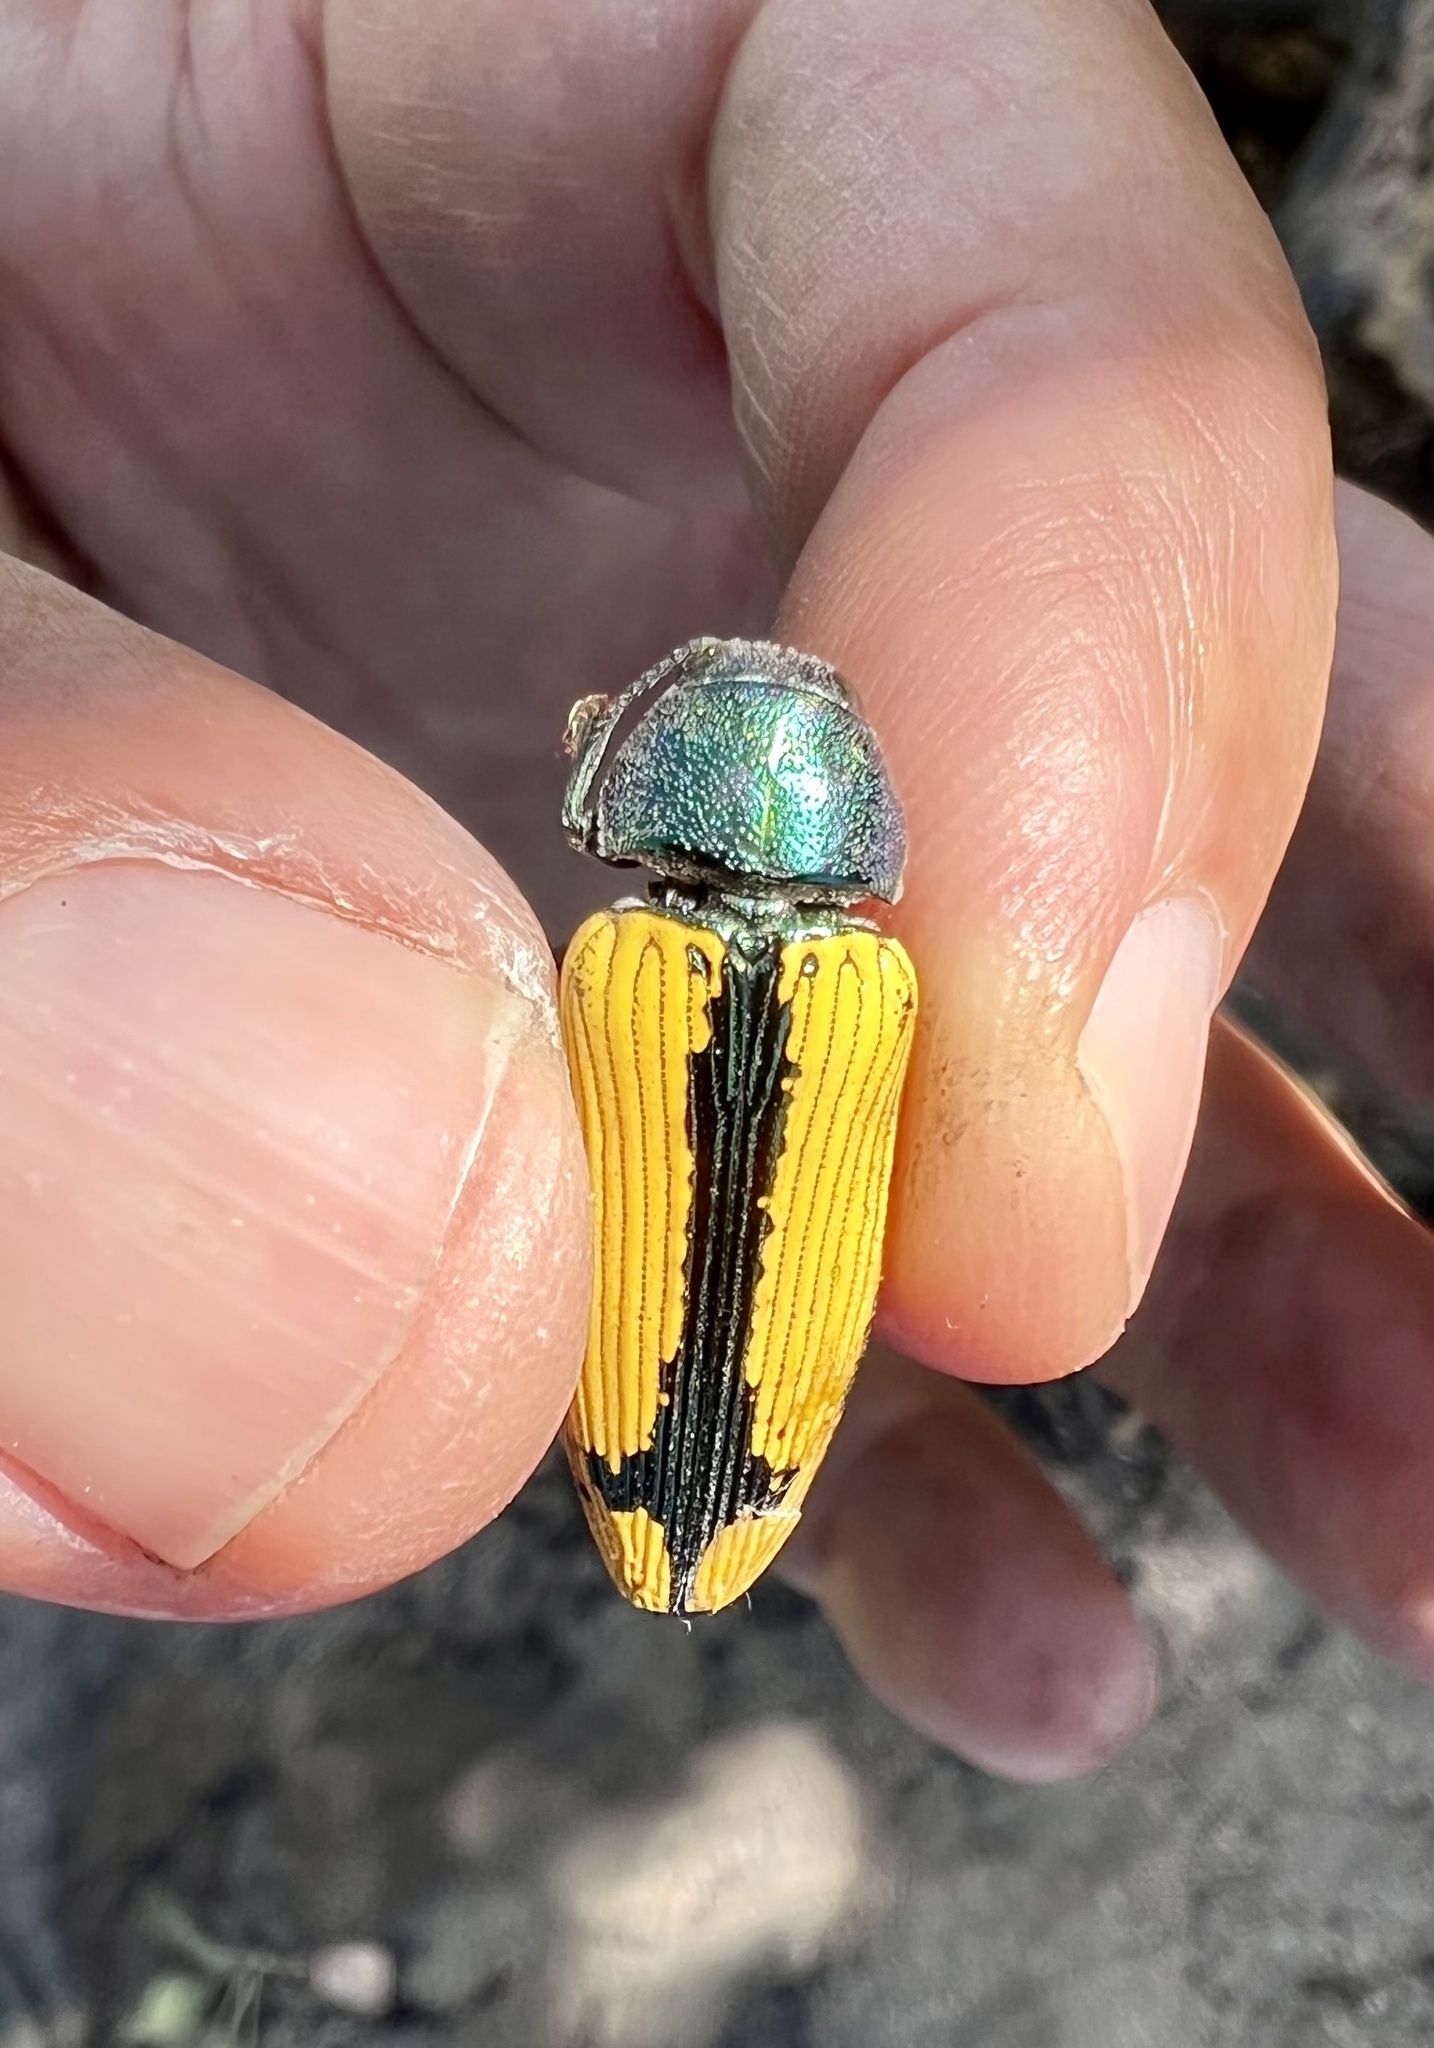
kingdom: Animalia
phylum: Arthropoda
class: Insecta
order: Coleoptera
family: Buprestidae
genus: Buprestis
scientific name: Buprestis viridisuturalis
